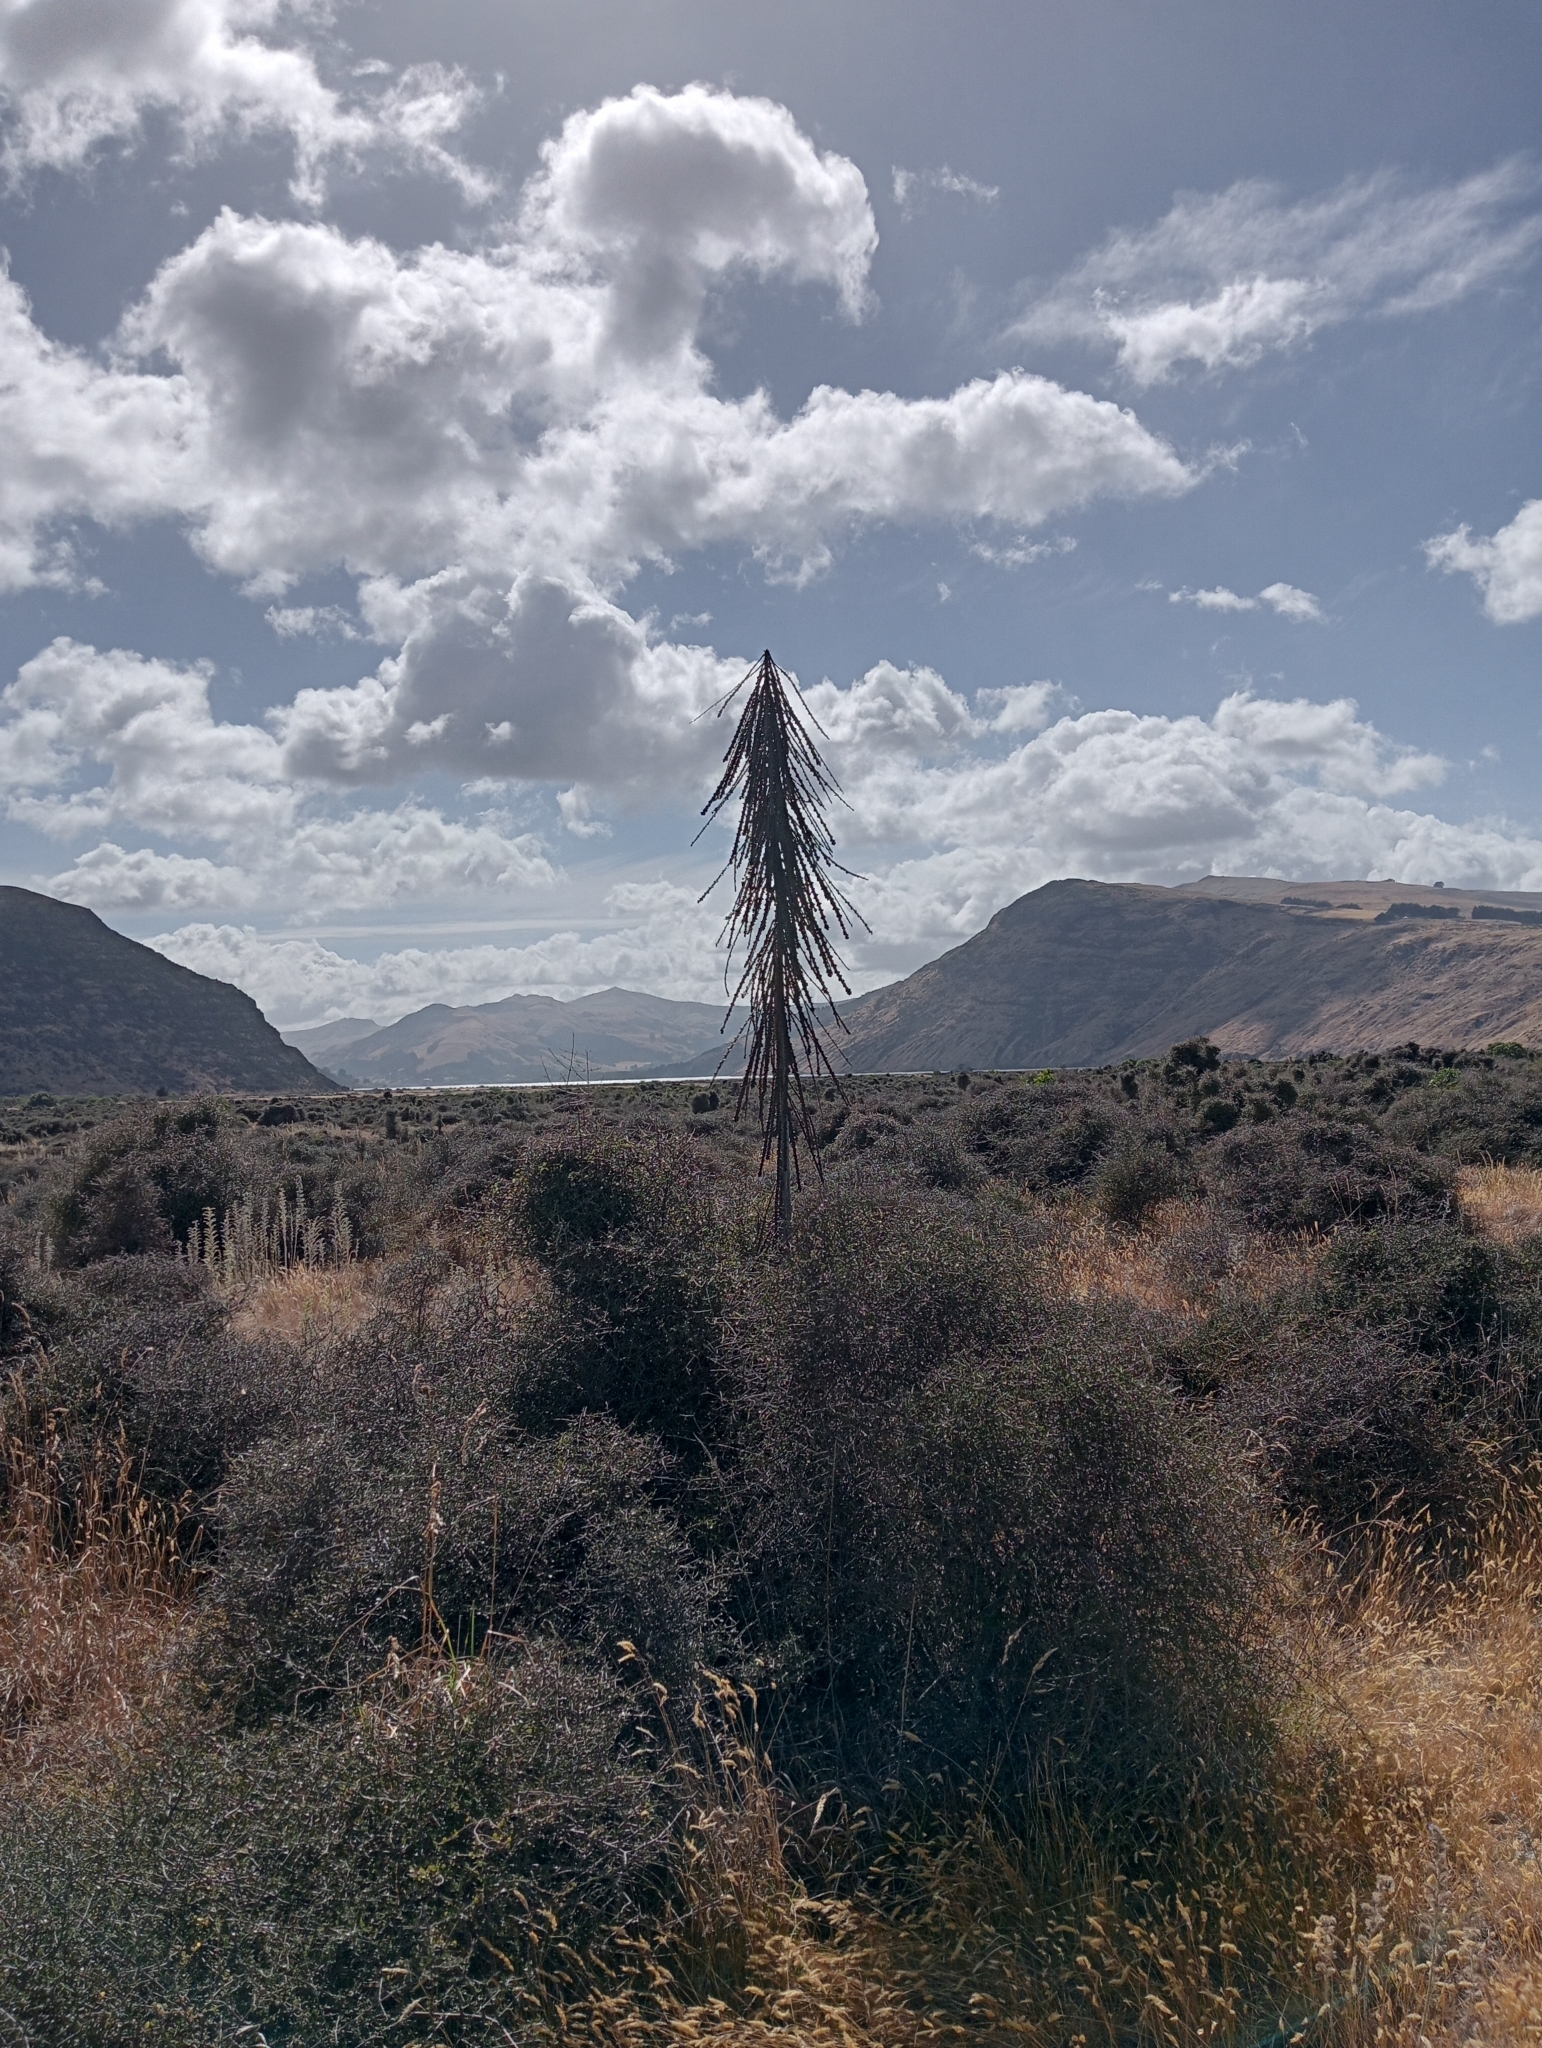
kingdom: Plantae
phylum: Tracheophyta
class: Magnoliopsida
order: Apiales
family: Araliaceae
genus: Pseudopanax
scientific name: Pseudopanax ferox
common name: Fierce lancewood
